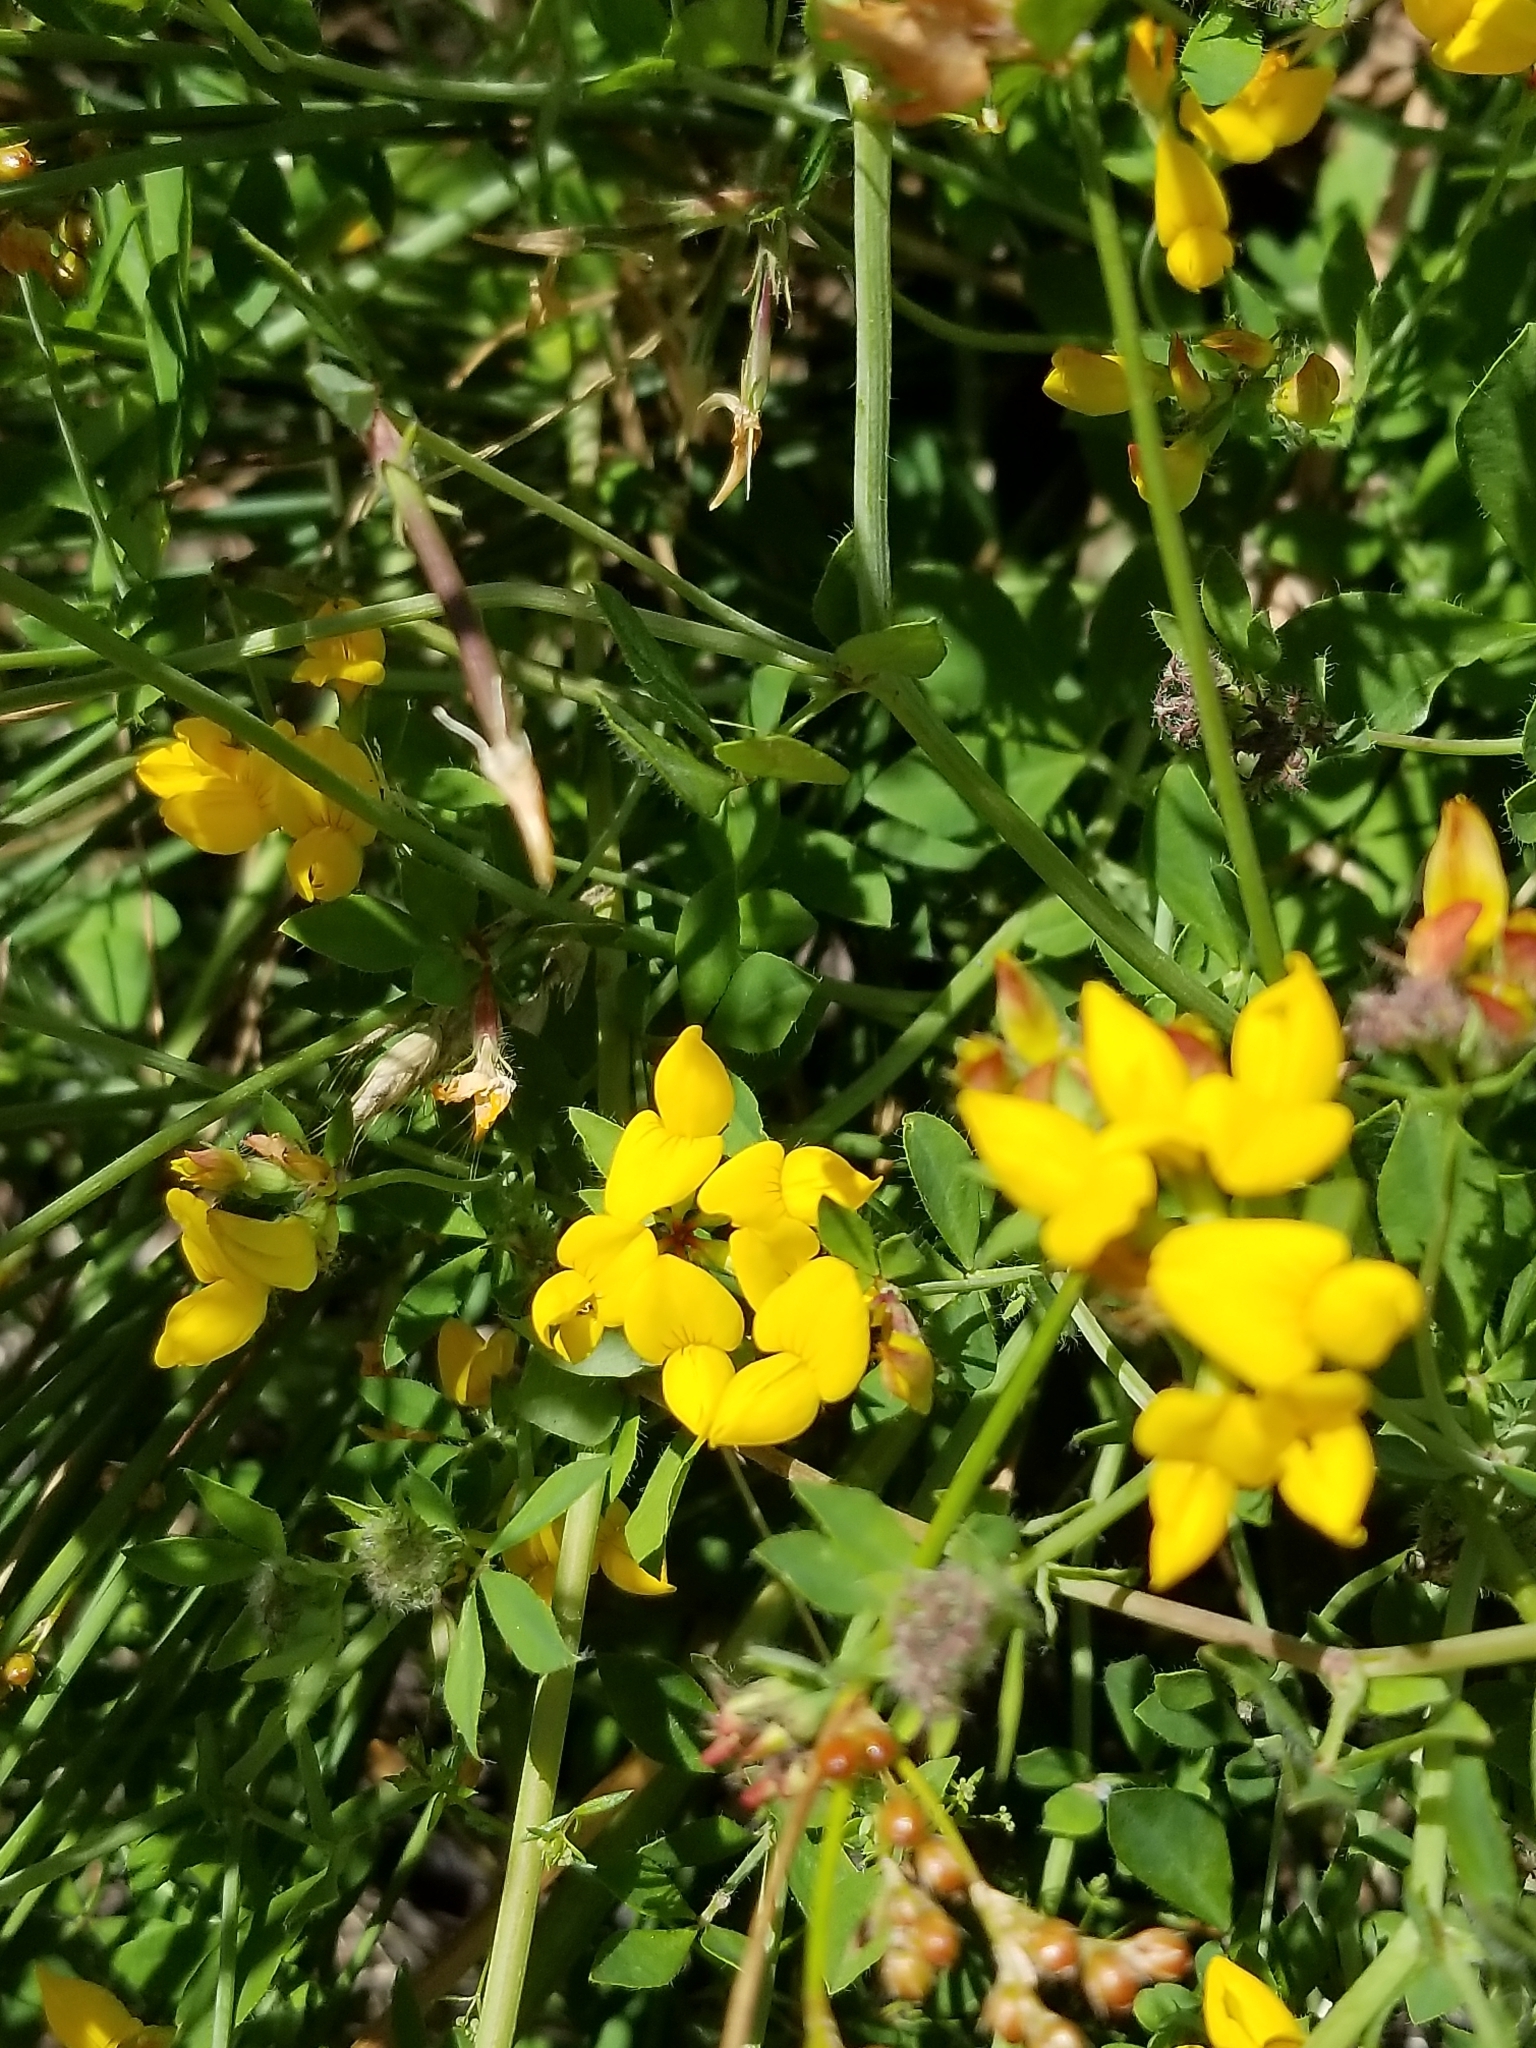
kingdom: Plantae
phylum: Tracheophyta
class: Magnoliopsida
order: Fabales
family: Fabaceae
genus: Lotus
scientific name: Lotus pedunculatus
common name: Greater birdsfoot-trefoil
